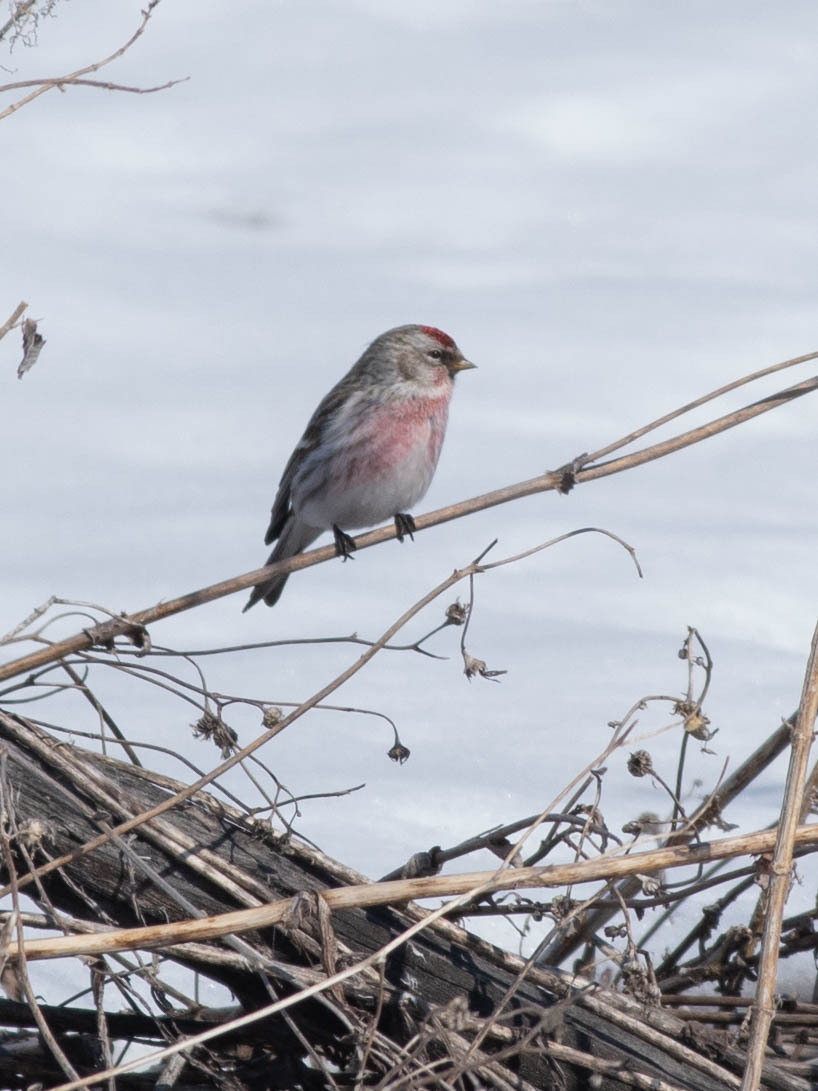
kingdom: Animalia
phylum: Chordata
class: Aves
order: Passeriformes
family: Fringillidae
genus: Acanthis
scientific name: Acanthis flammea
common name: Common redpoll
